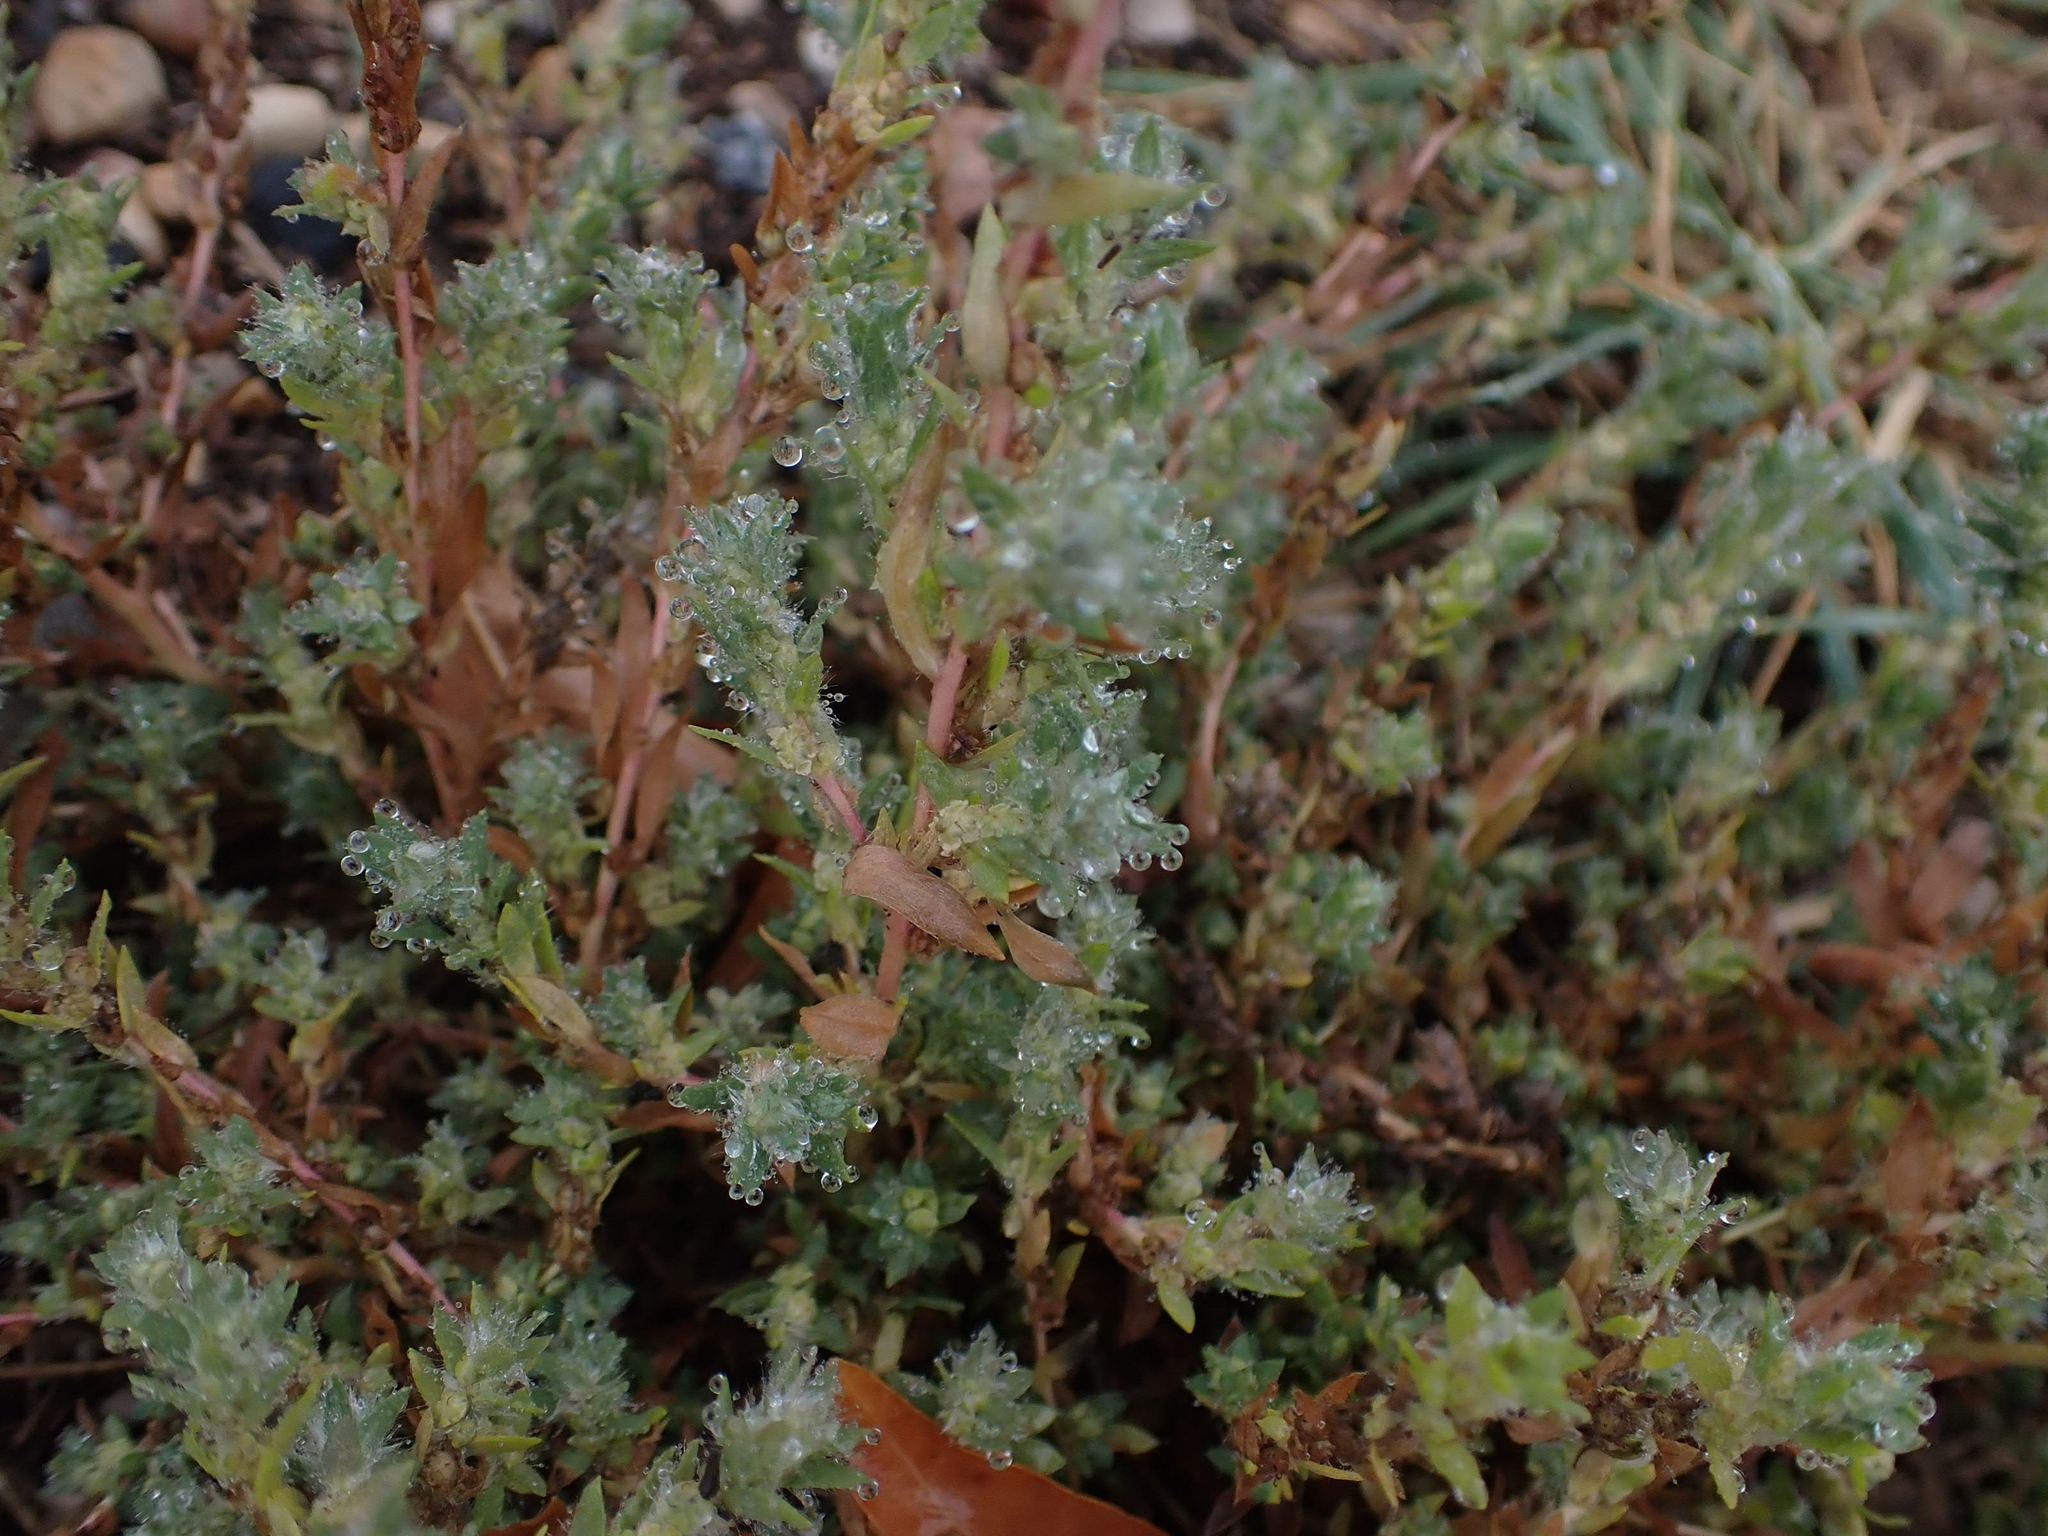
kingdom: Plantae
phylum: Tracheophyta
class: Magnoliopsida
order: Caryophyllales
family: Amaranthaceae
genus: Bassia
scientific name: Bassia scoparia
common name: Belvedere
